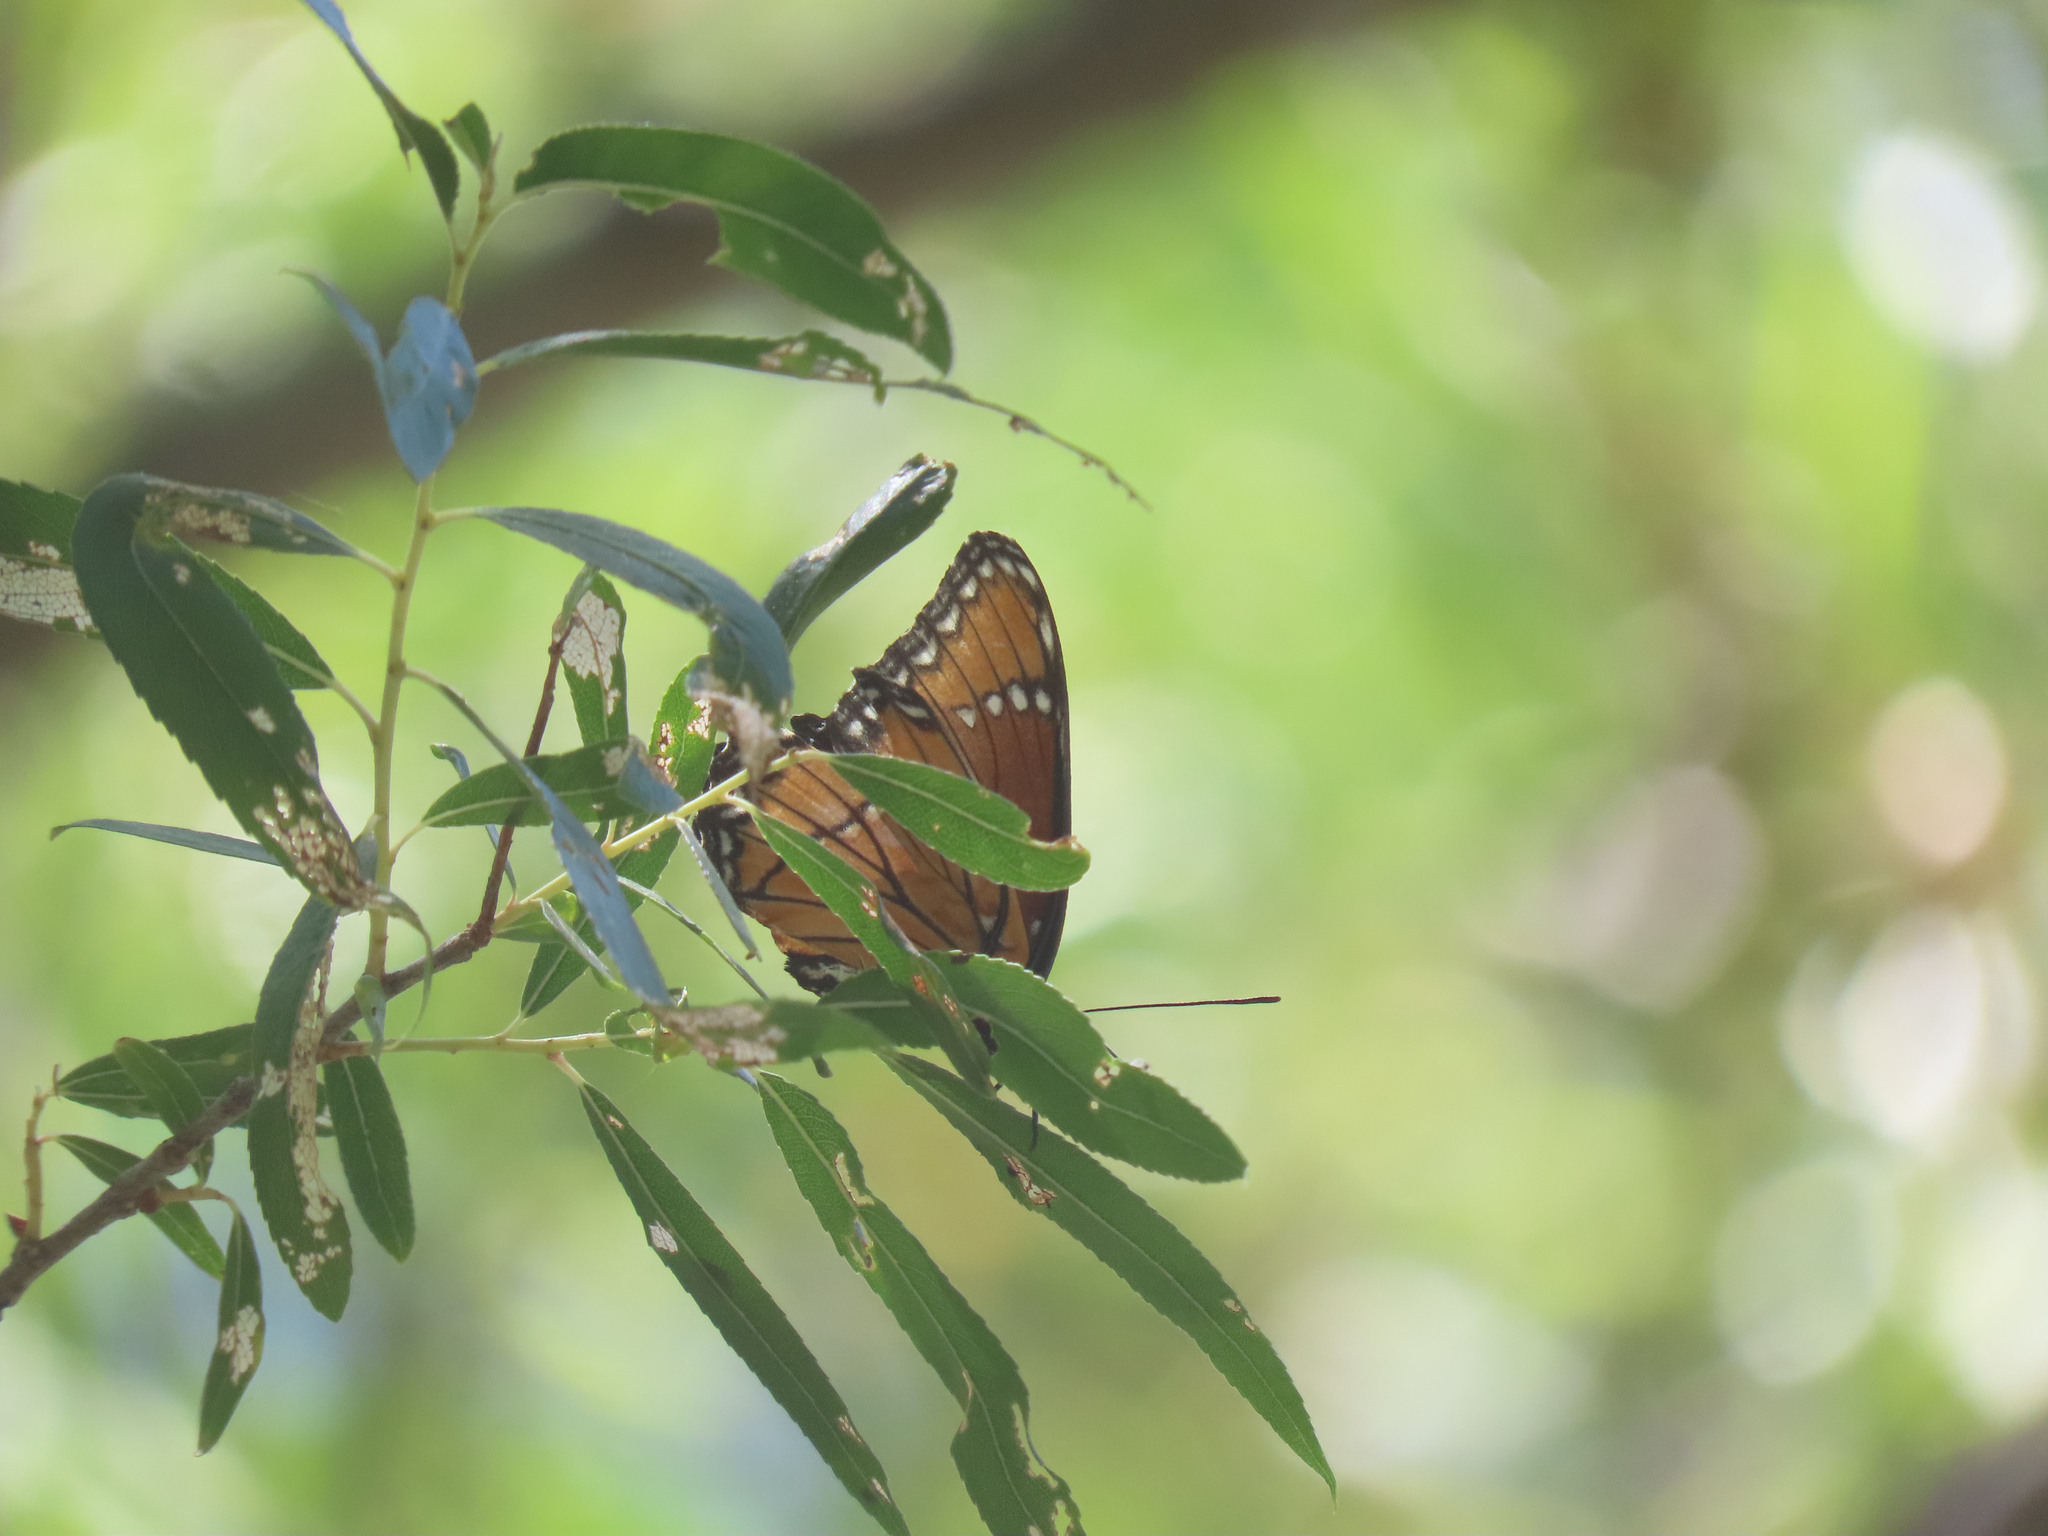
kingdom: Animalia
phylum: Arthropoda
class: Insecta
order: Lepidoptera
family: Nymphalidae
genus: Limenitis
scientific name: Limenitis archippus
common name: Viceroy
